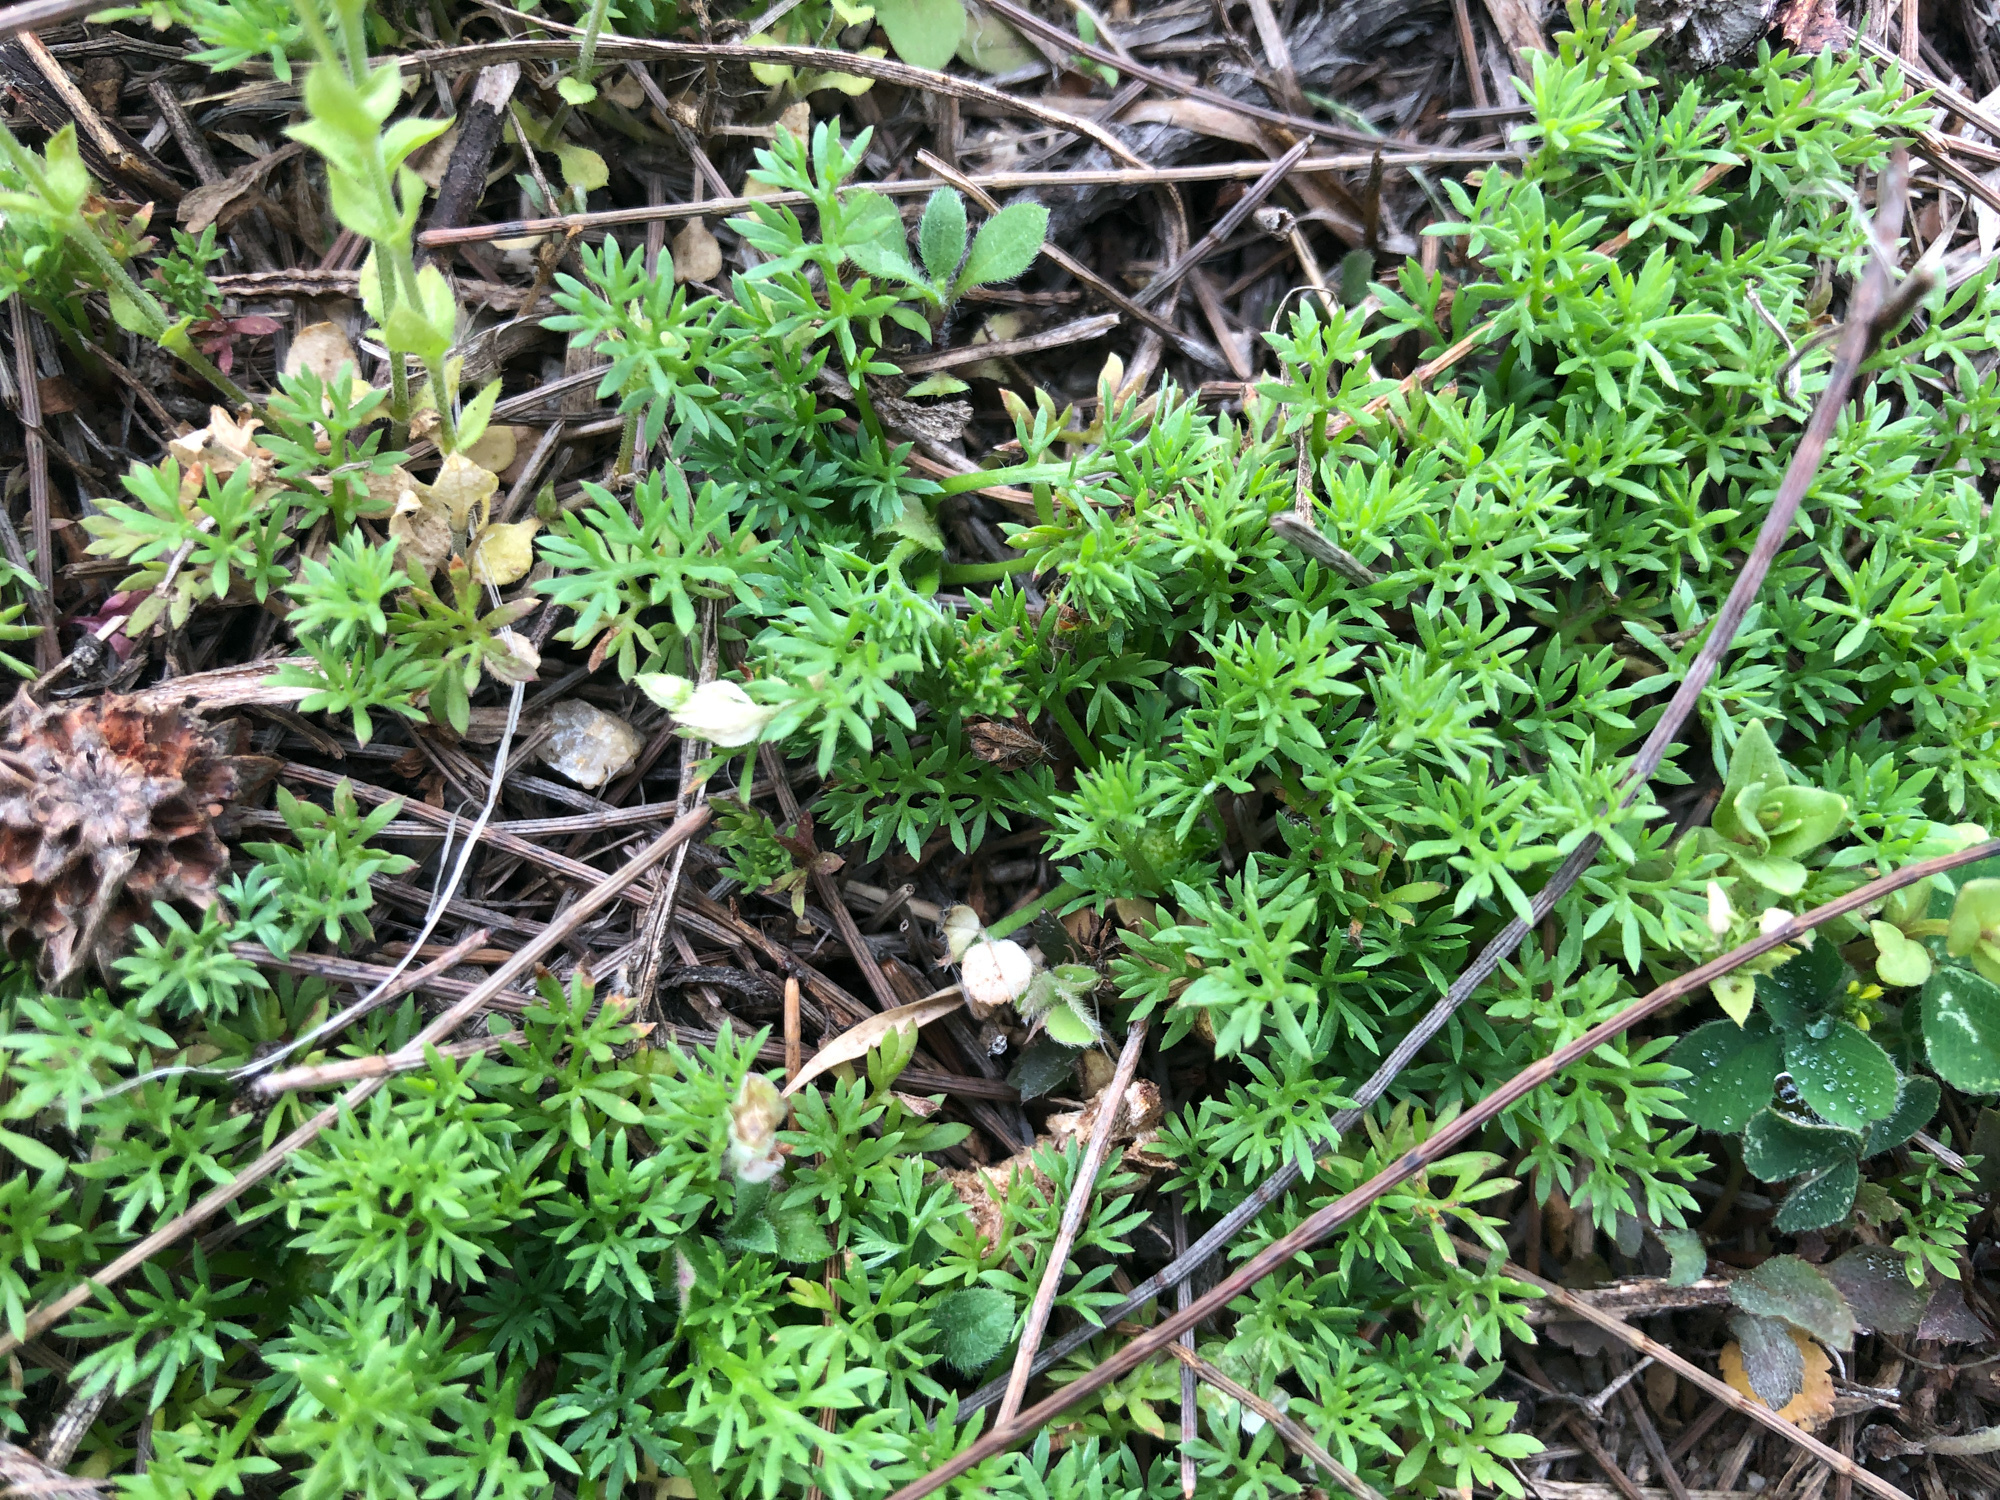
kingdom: Plantae
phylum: Tracheophyta
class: Magnoliopsida
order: Asterales
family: Asteraceae
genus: Soliva
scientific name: Soliva anthemifolia
